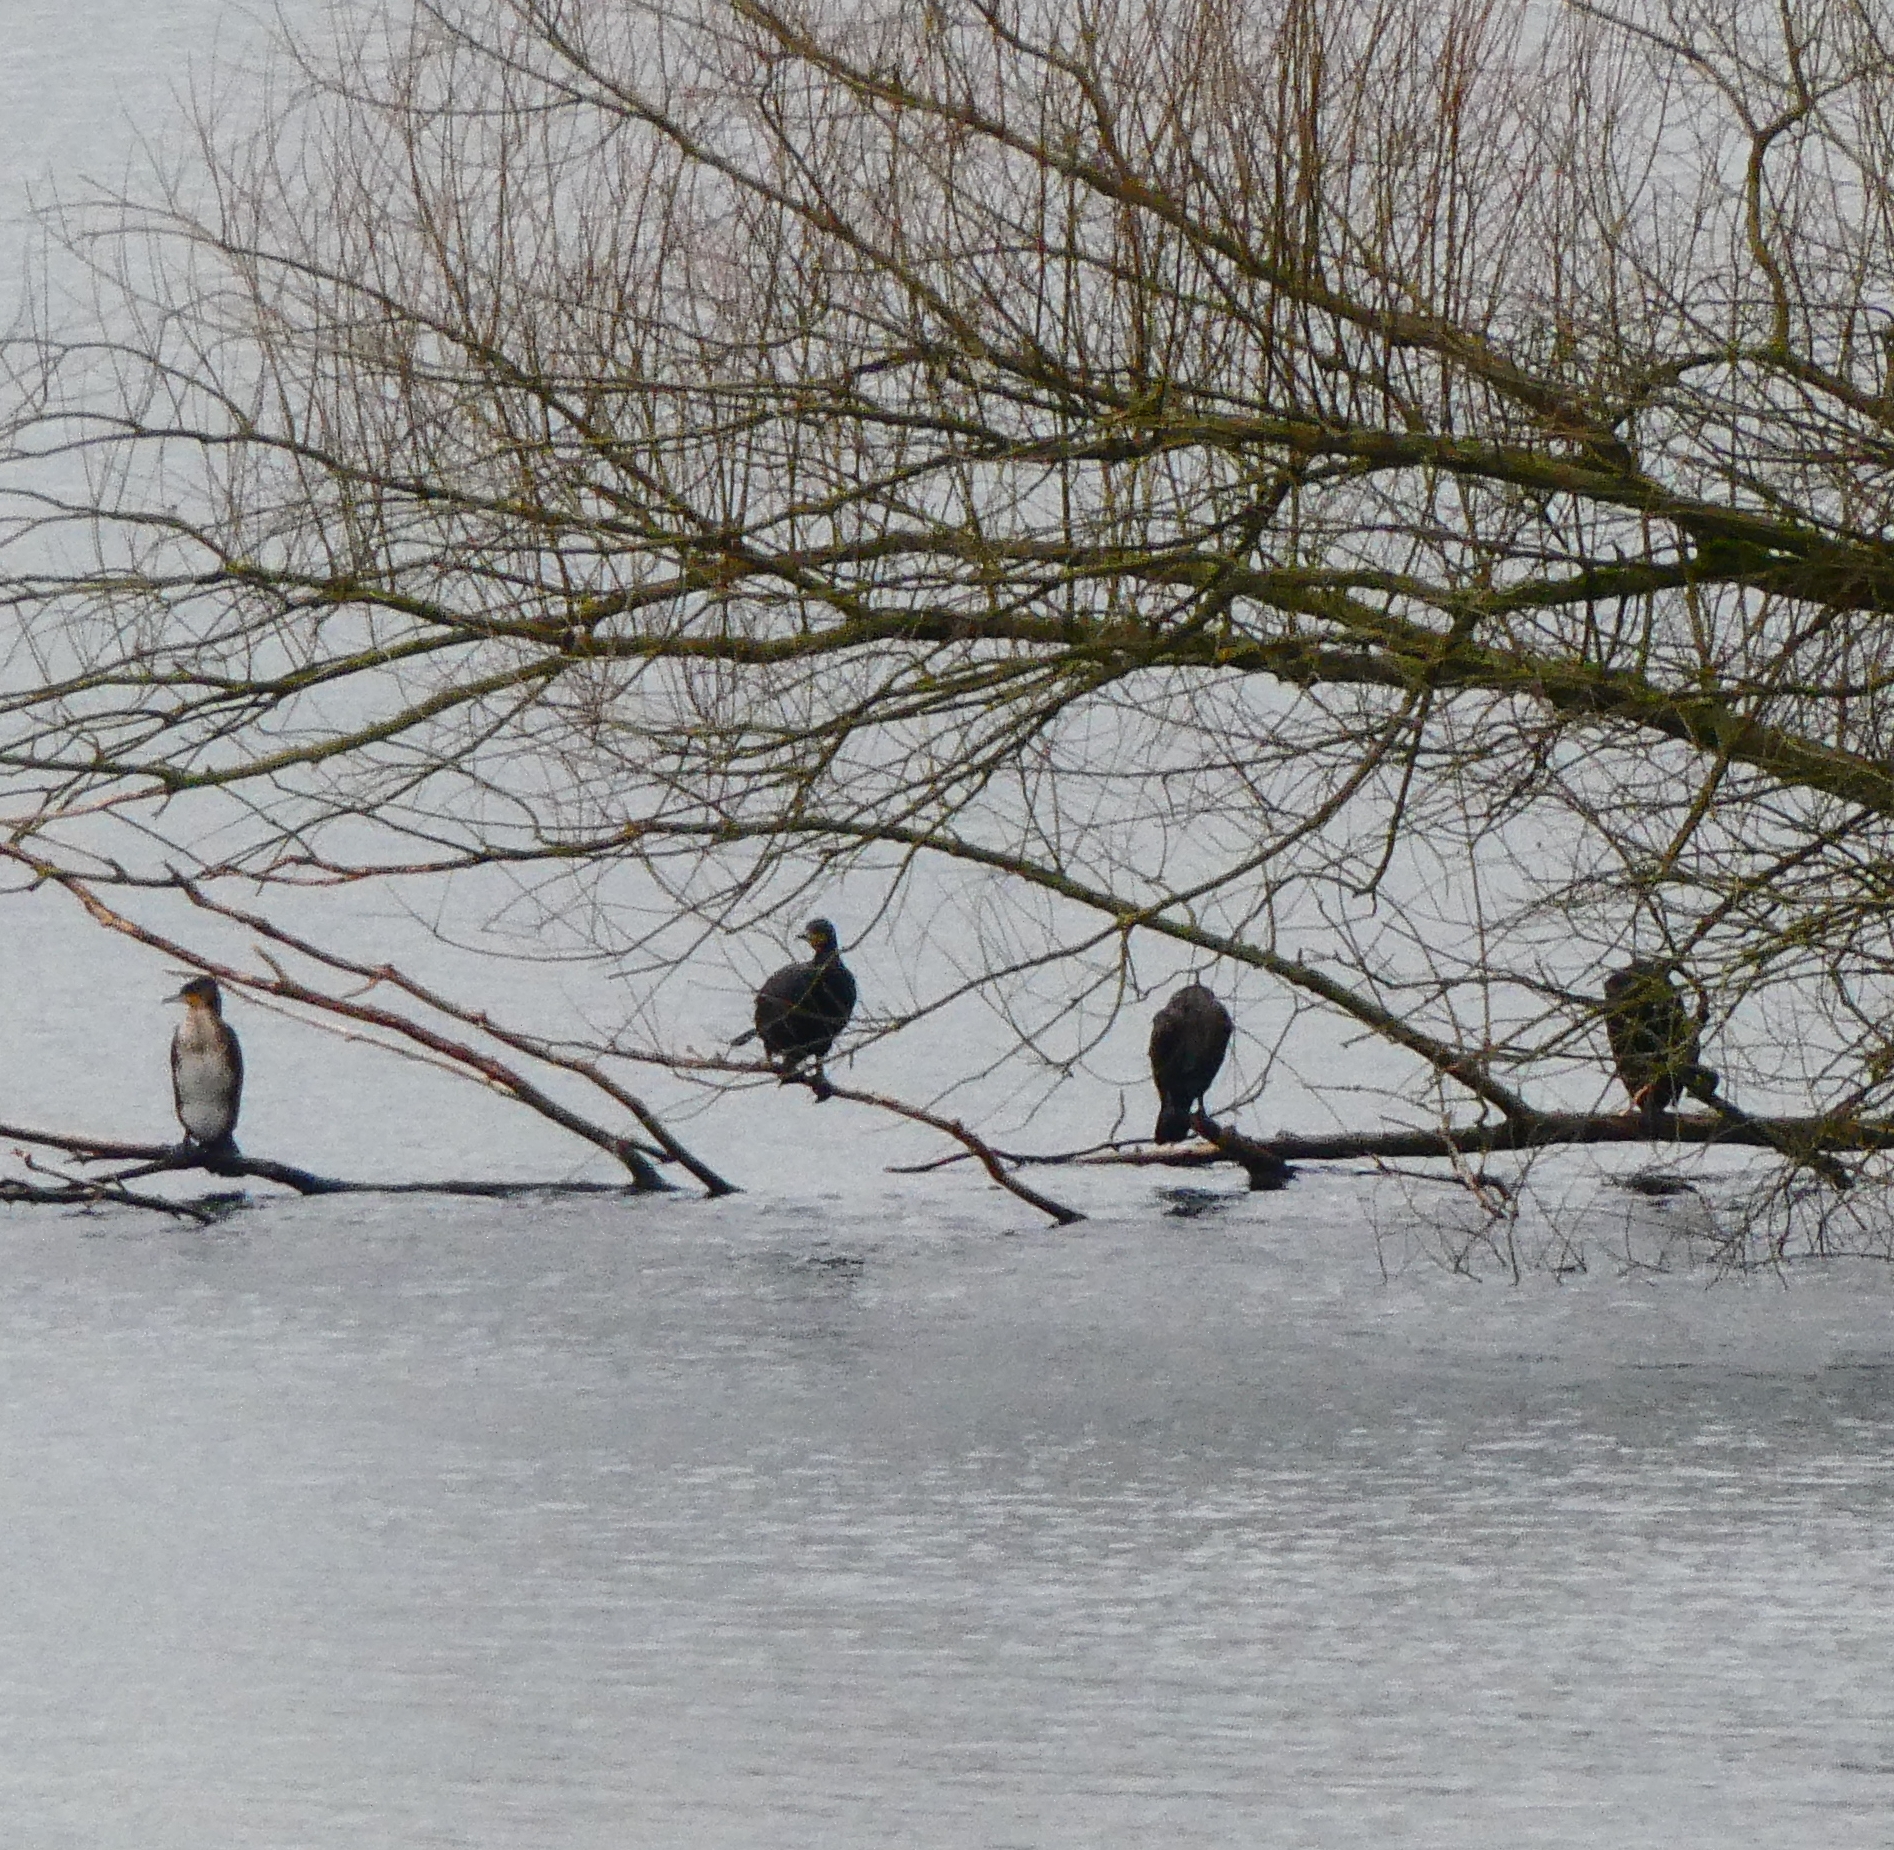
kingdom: Animalia
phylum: Chordata
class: Aves
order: Suliformes
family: Phalacrocoracidae
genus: Phalacrocorax
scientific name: Phalacrocorax carbo
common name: Great cormorant
